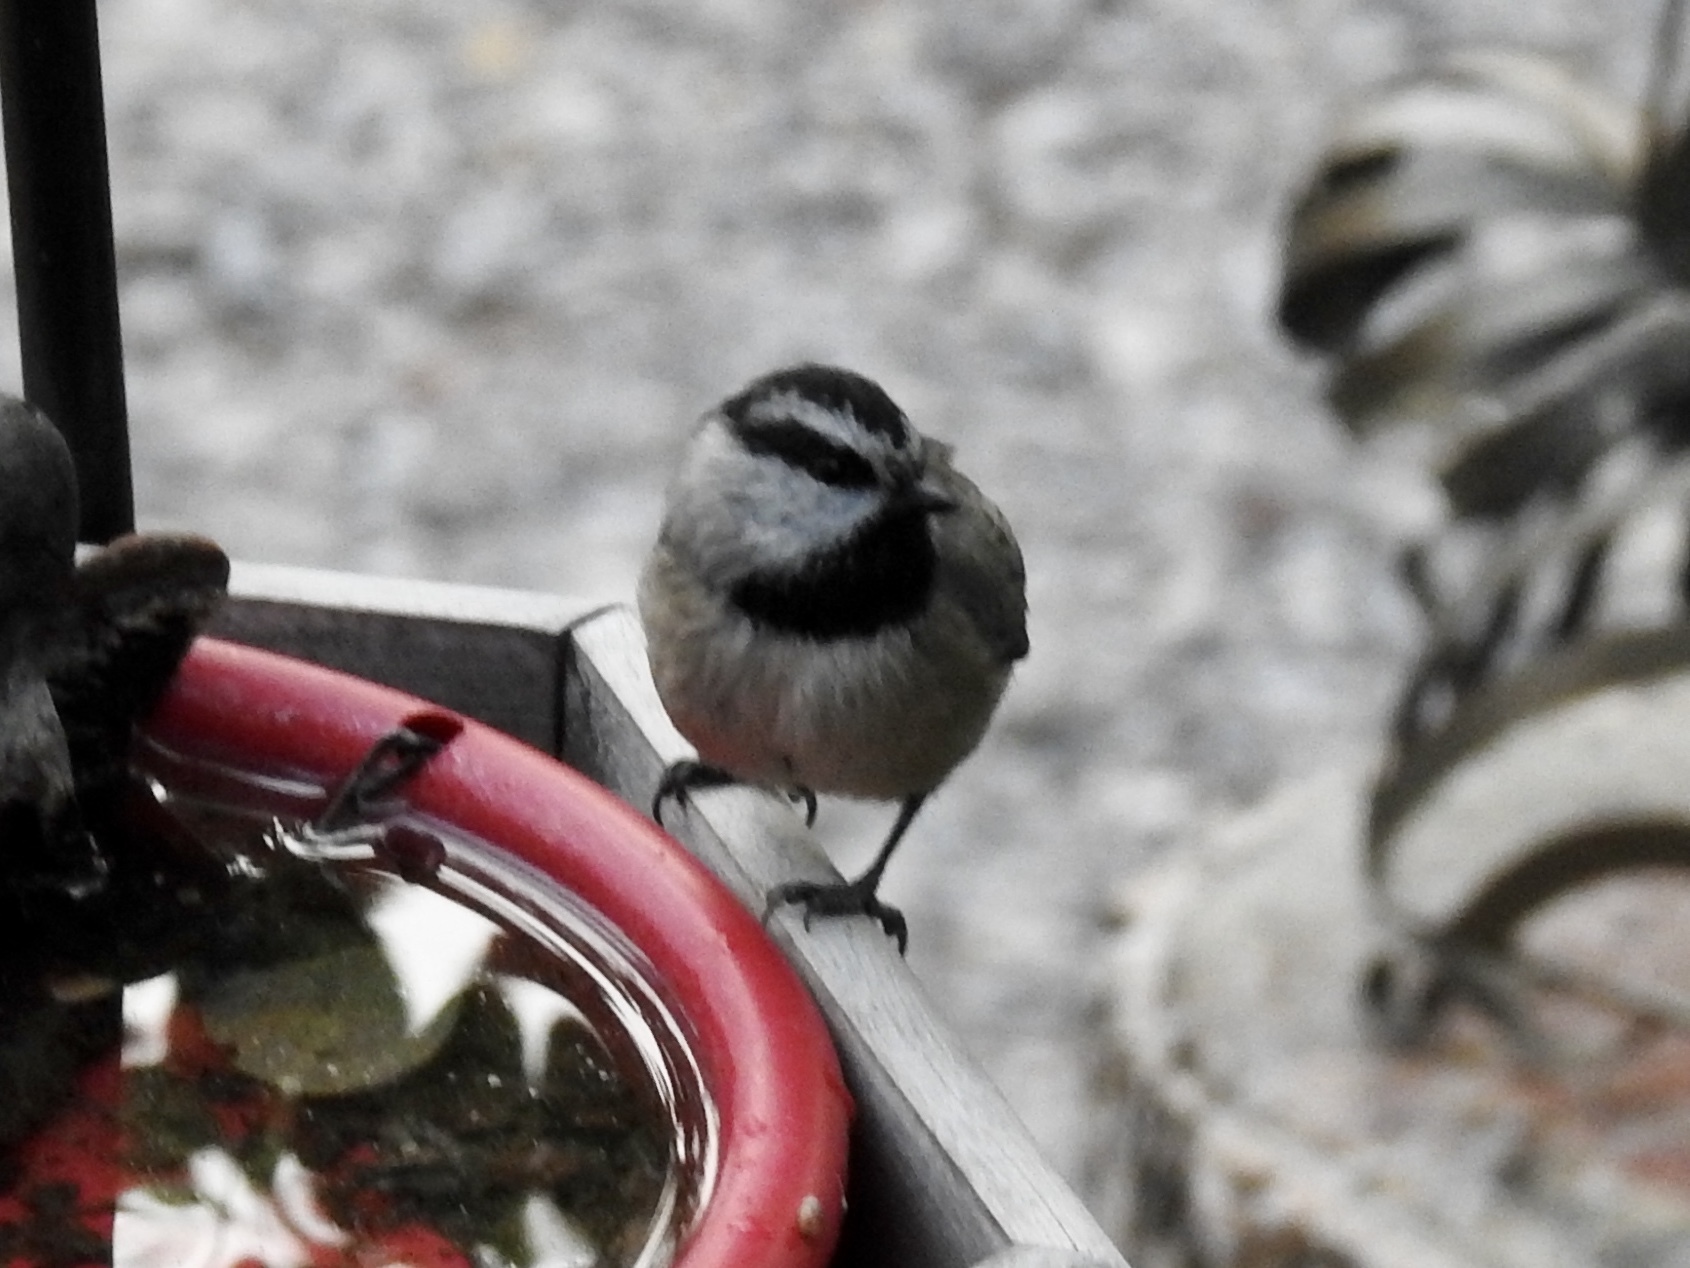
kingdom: Animalia
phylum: Chordata
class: Aves
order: Passeriformes
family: Paridae
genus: Poecile
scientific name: Poecile gambeli
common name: Mountain chickadee
